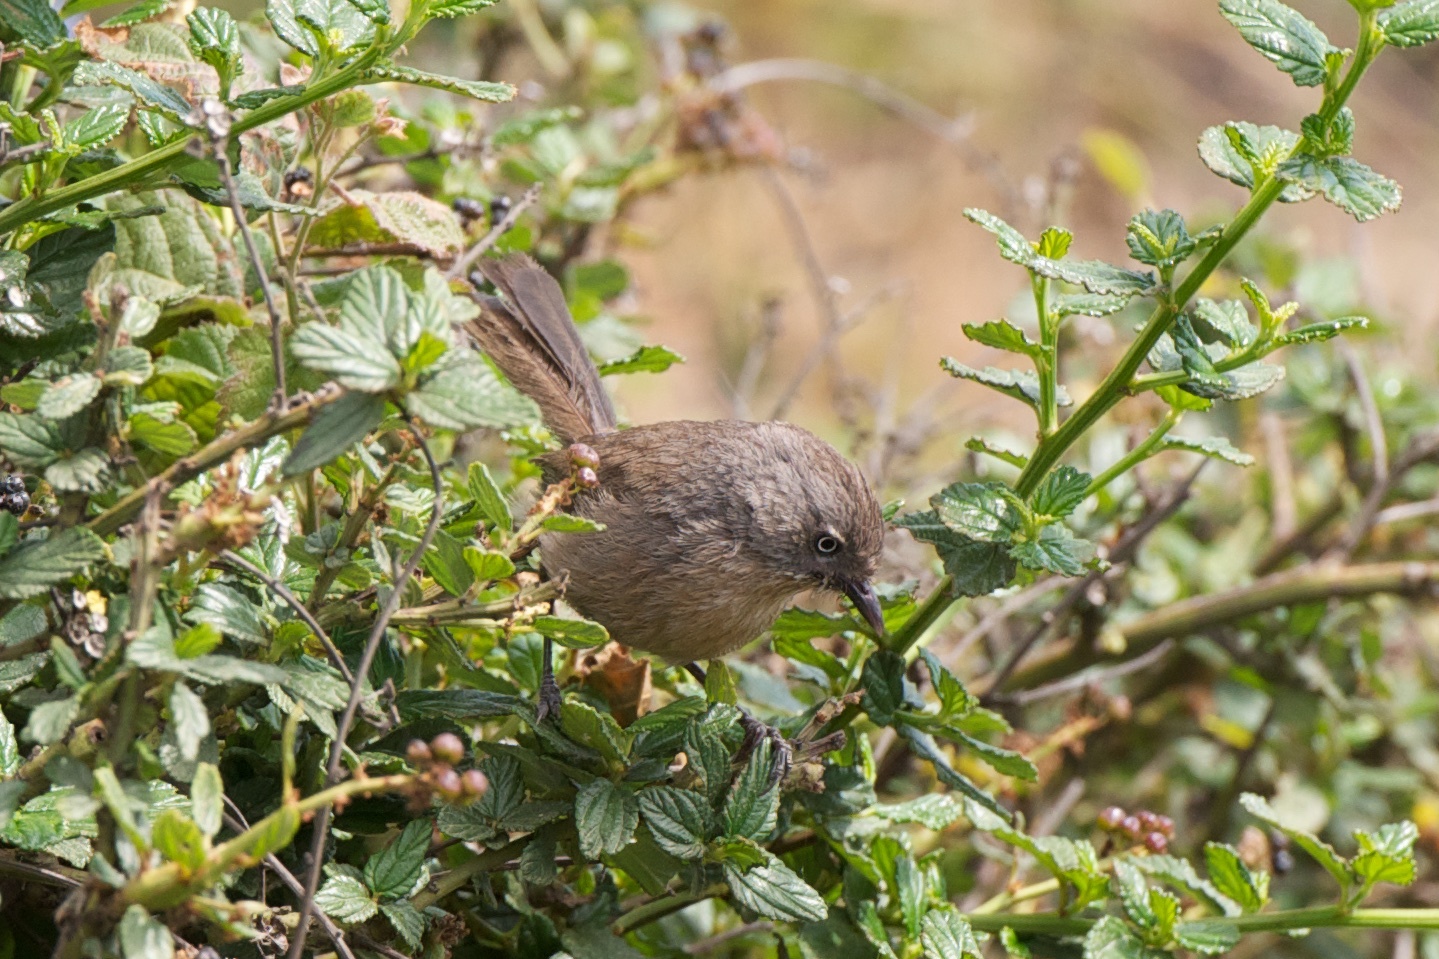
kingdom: Animalia
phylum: Chordata
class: Aves
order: Passeriformes
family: Sylviidae
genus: Chamaea
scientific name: Chamaea fasciata
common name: Wrentit
